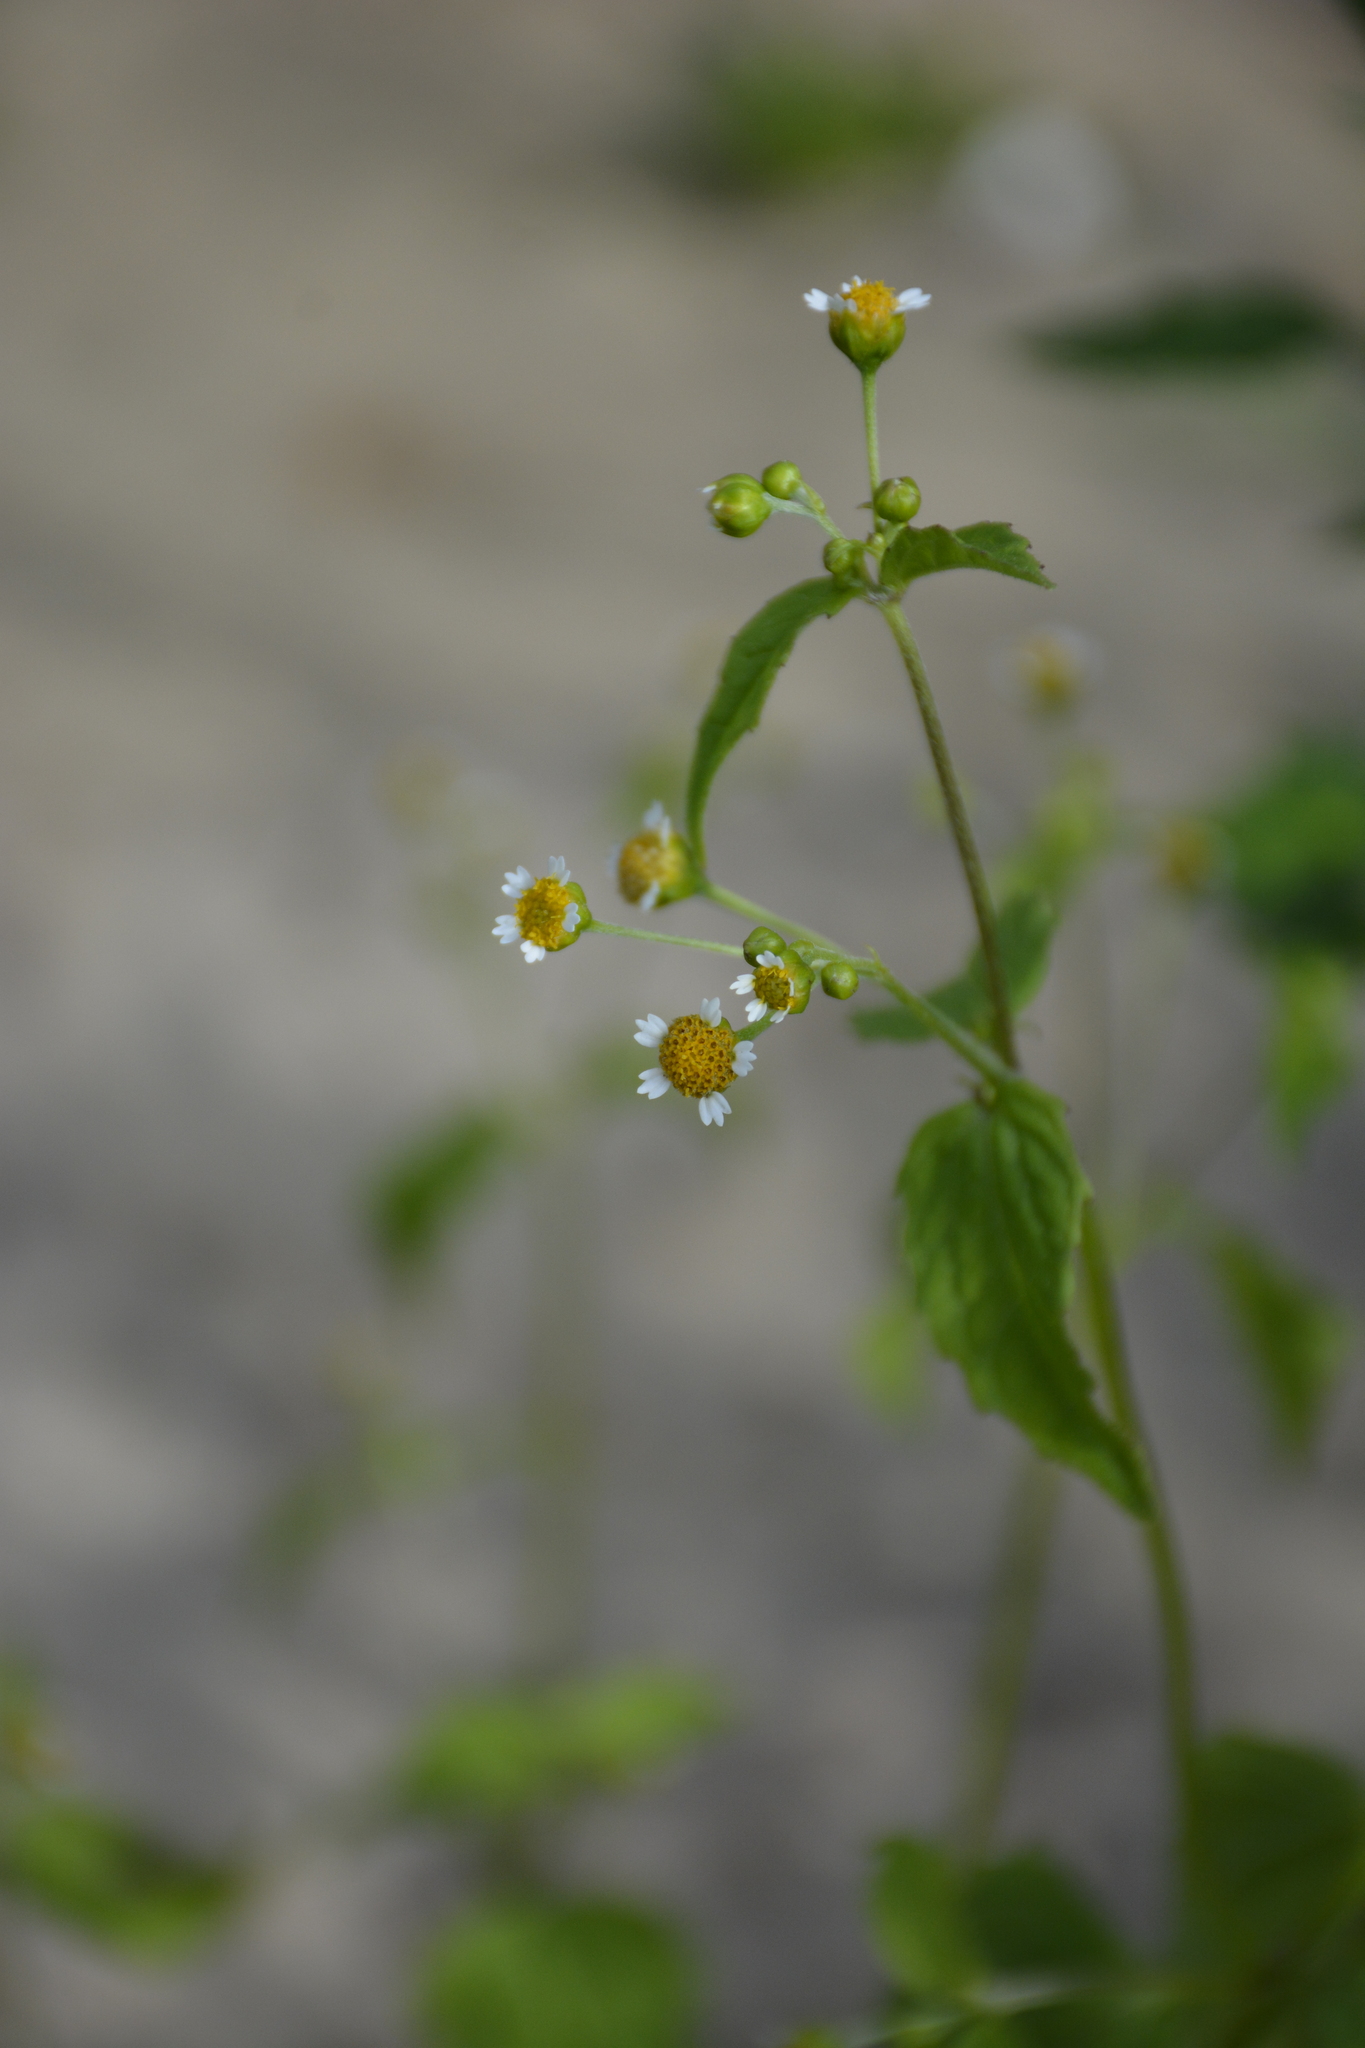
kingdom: Plantae
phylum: Tracheophyta
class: Magnoliopsida
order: Asterales
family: Asteraceae
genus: Galinsoga
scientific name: Galinsoga parviflora
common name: Gallant soldier
